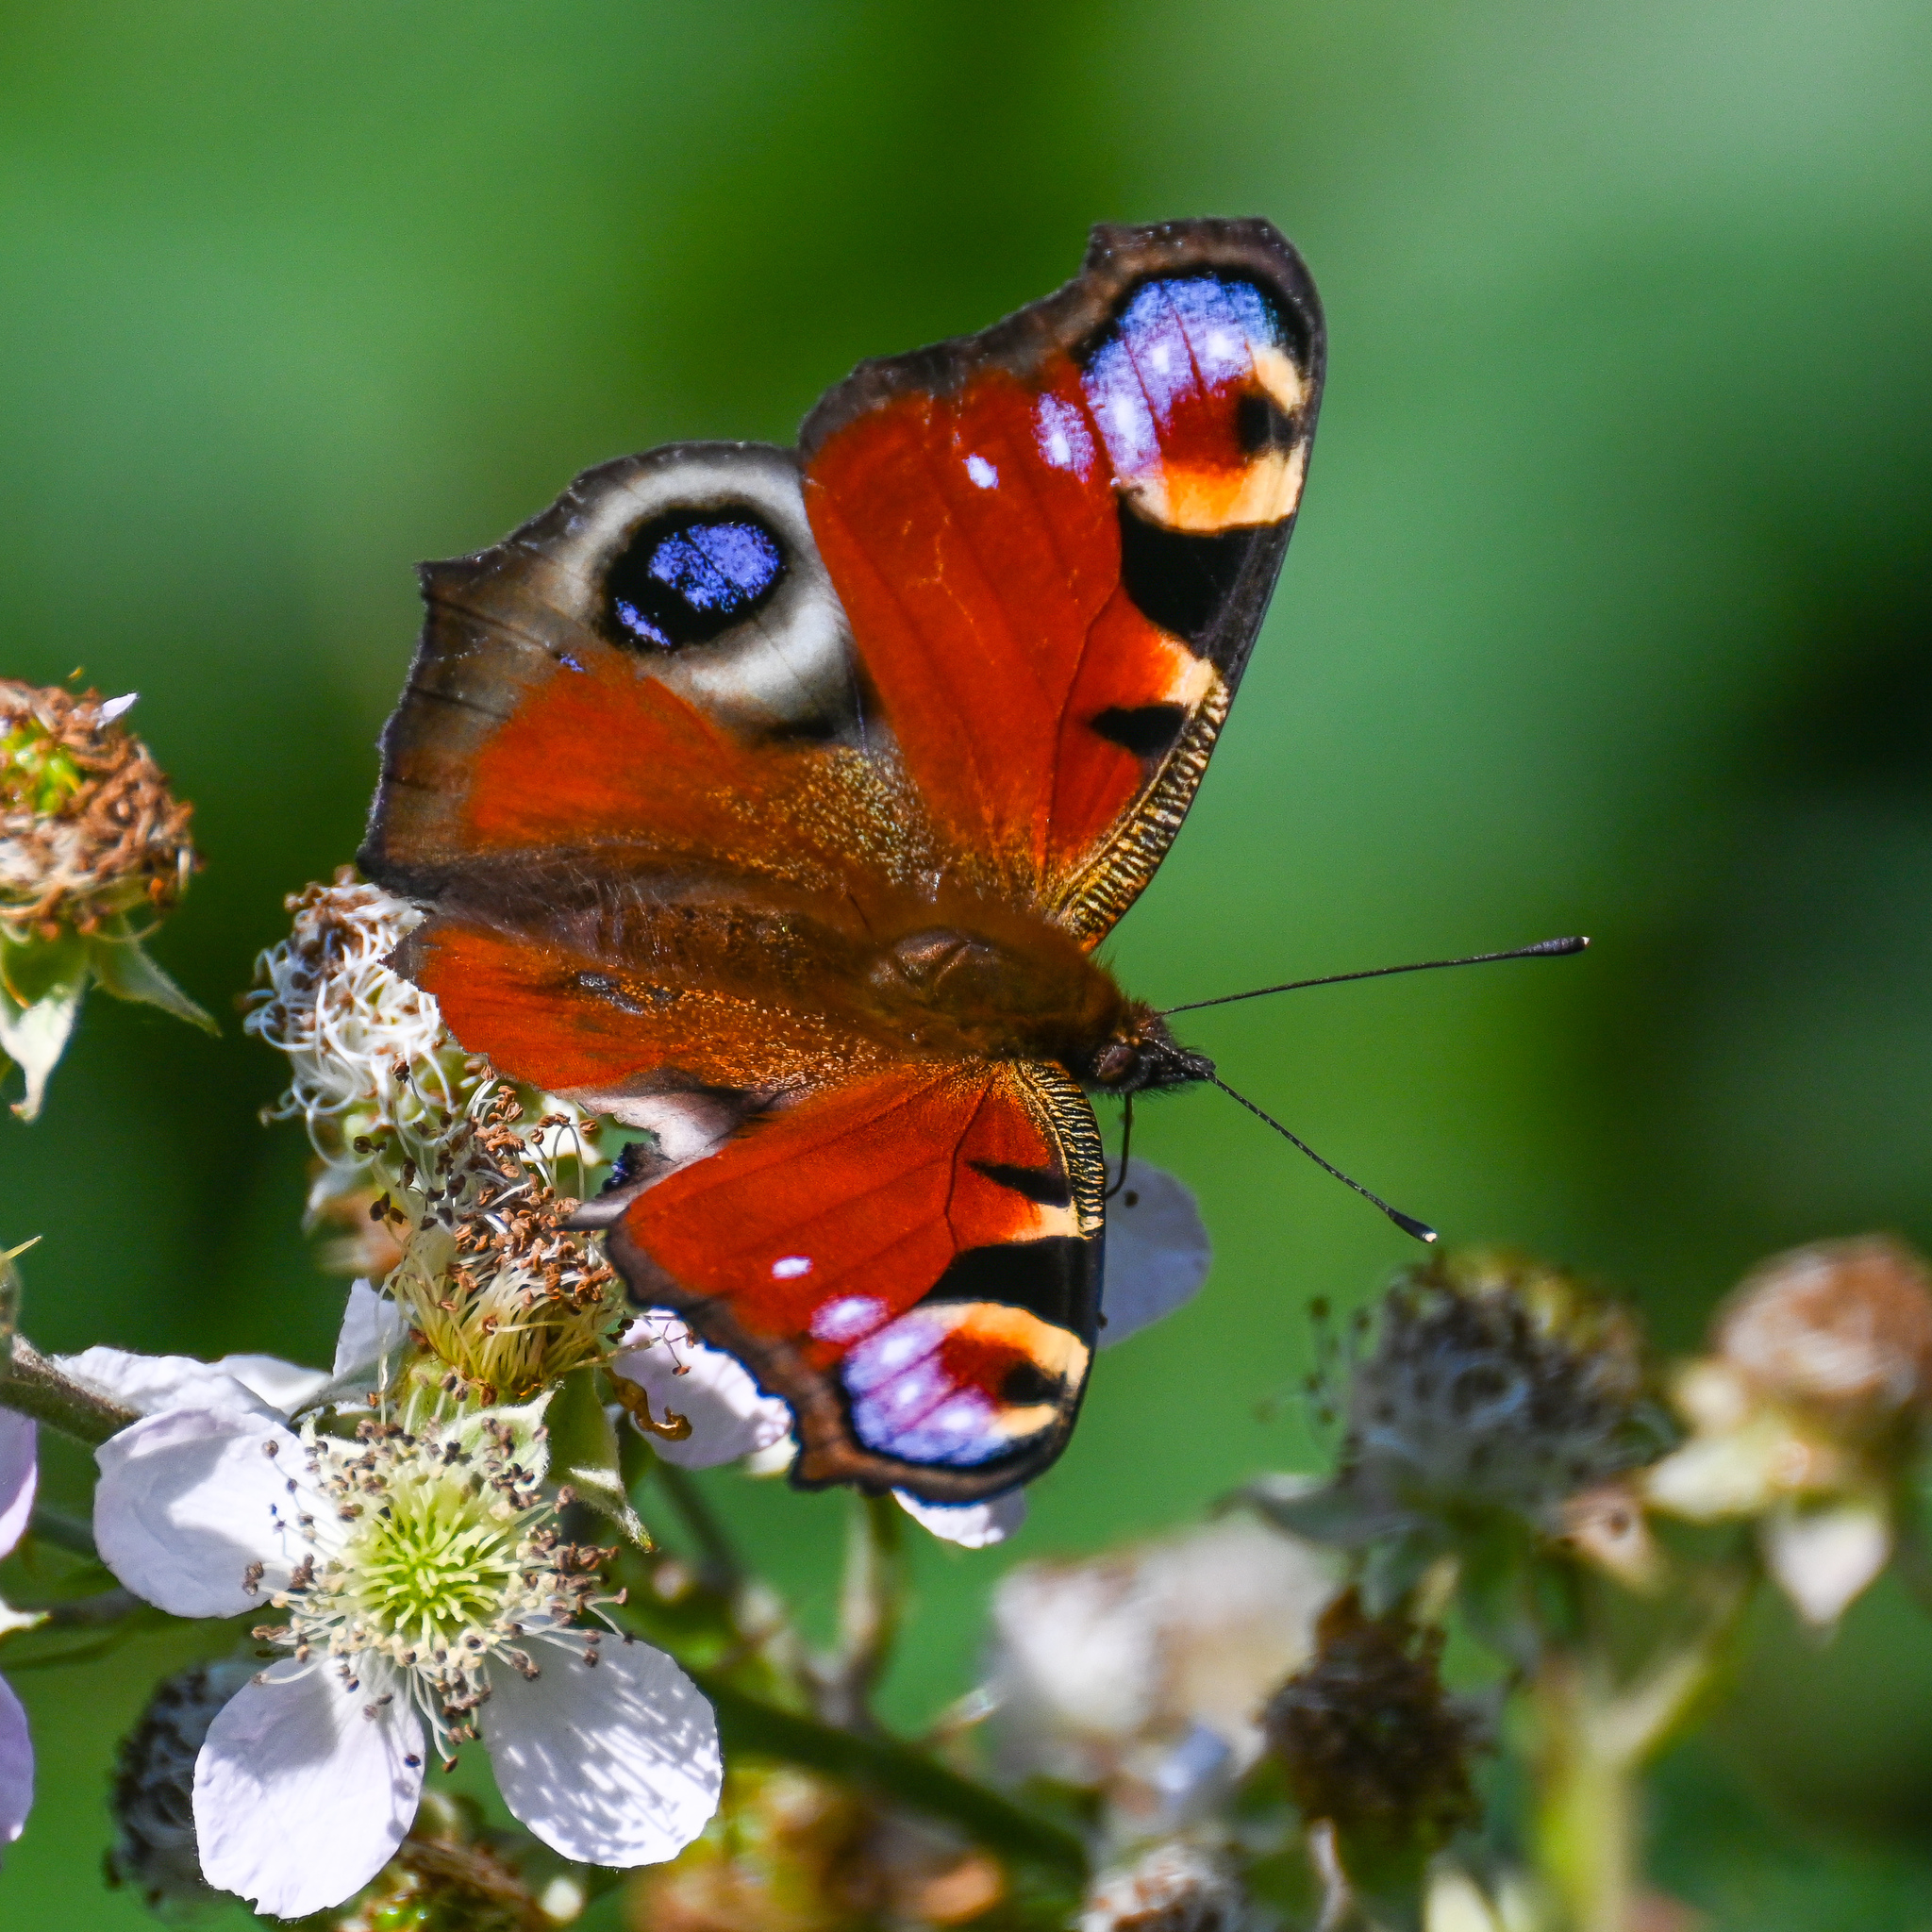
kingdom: Animalia
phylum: Arthropoda
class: Insecta
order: Lepidoptera
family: Nymphalidae
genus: Aglais
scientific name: Aglais io
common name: Peacock
